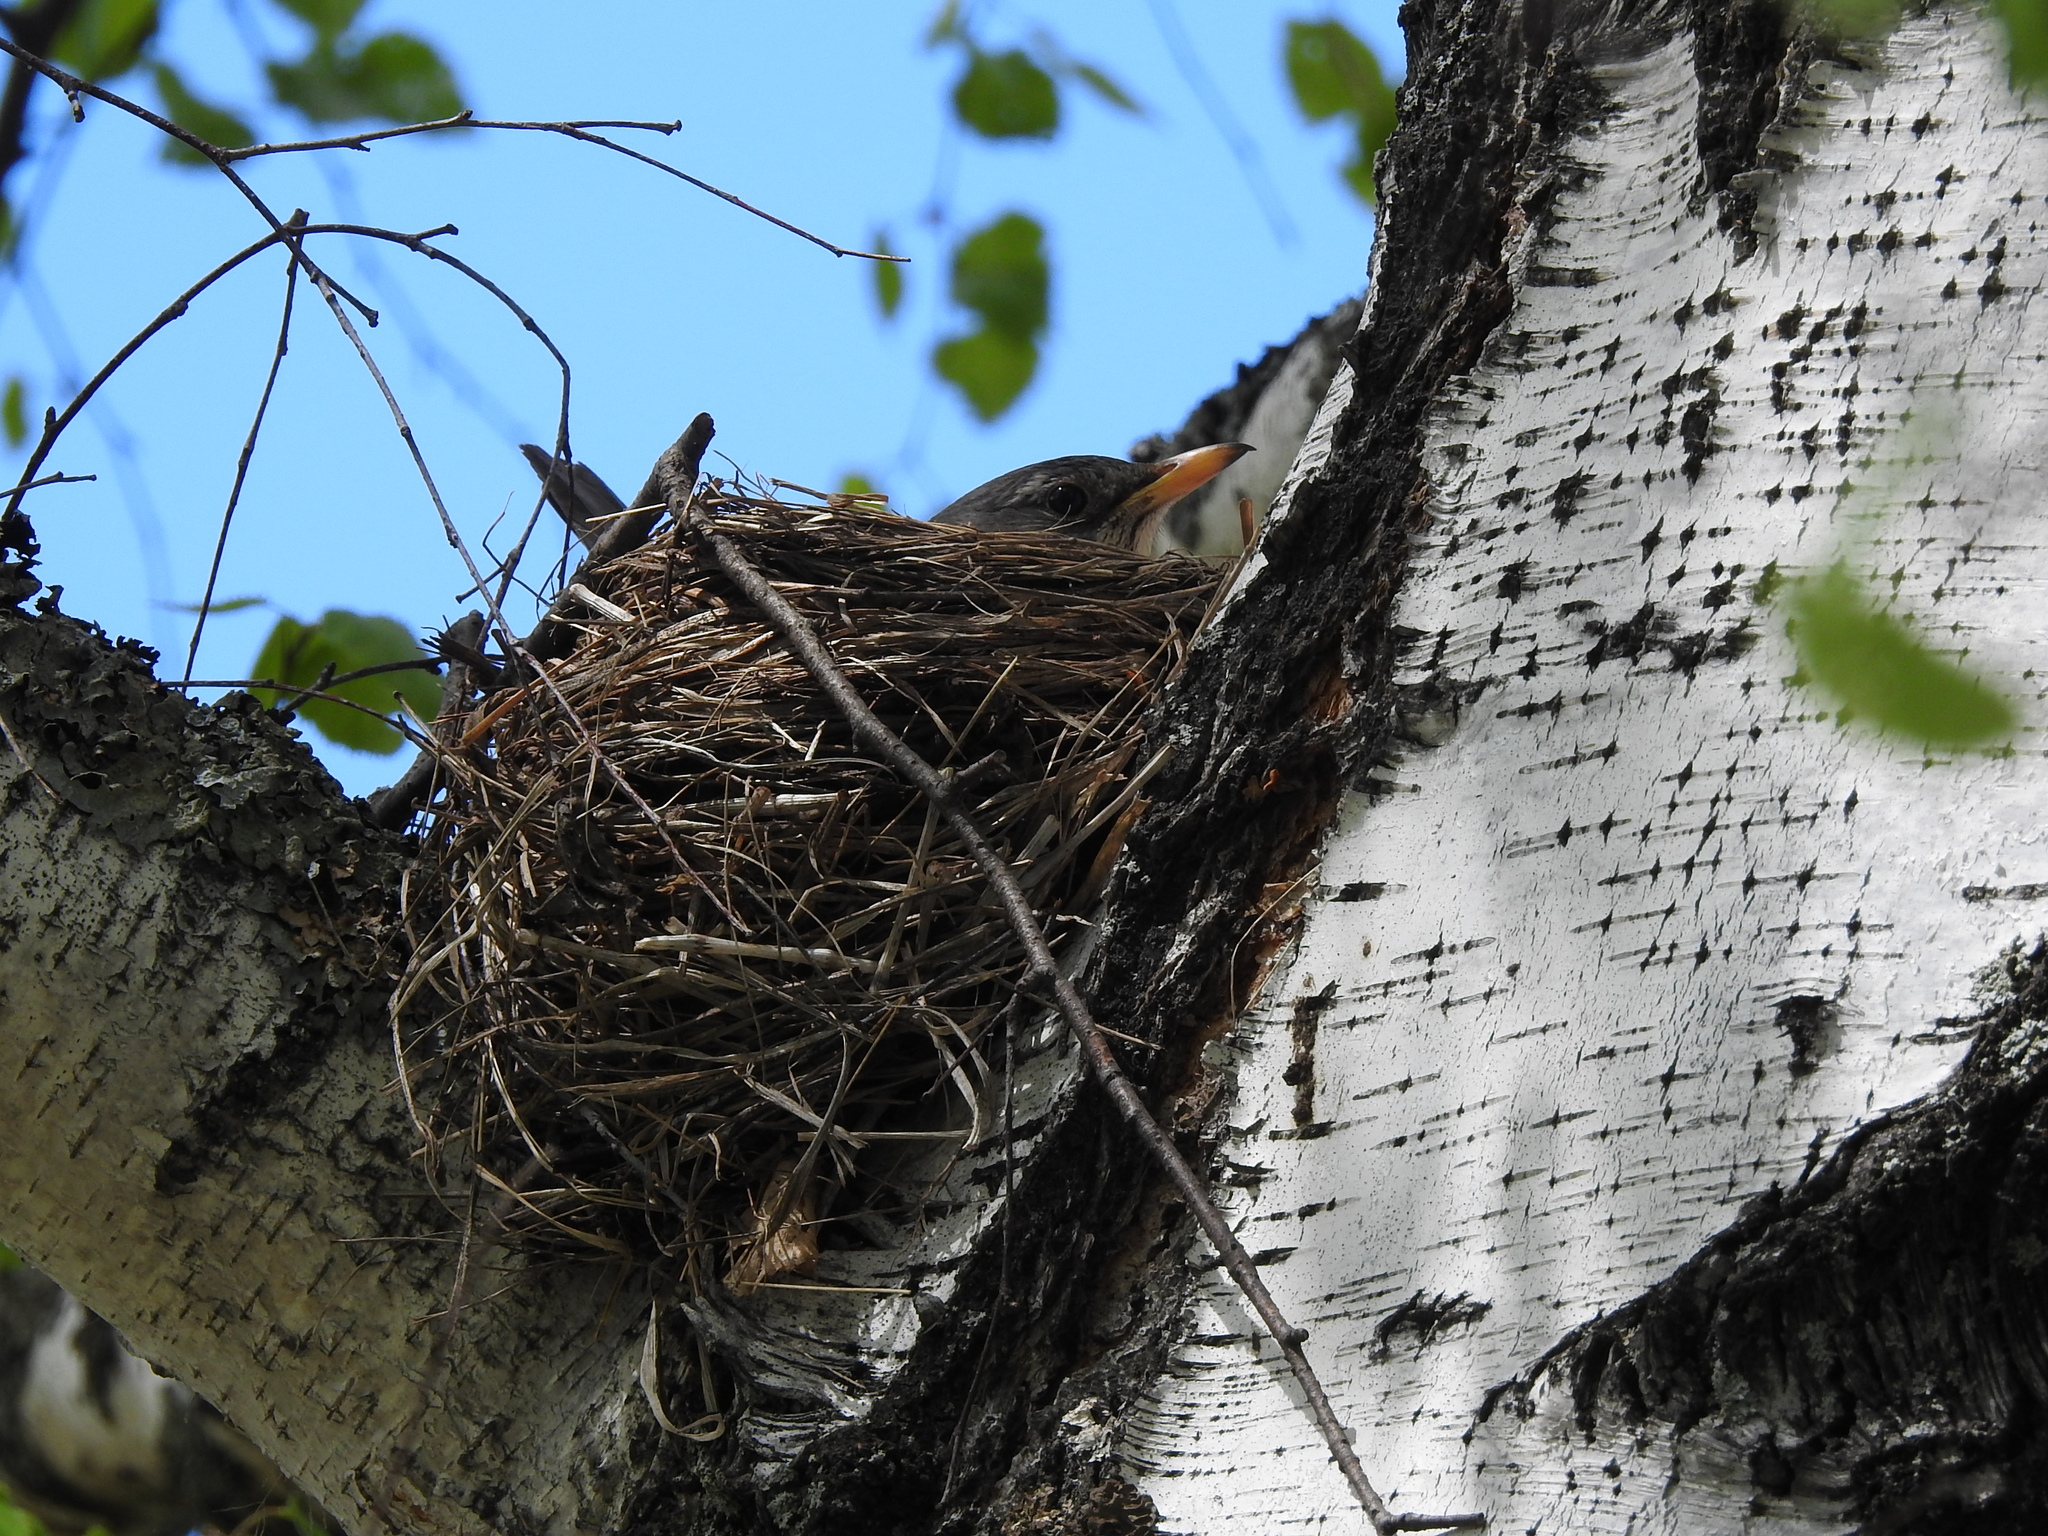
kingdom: Animalia
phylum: Chordata
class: Aves
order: Passeriformes
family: Turdidae
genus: Turdus
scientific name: Turdus pilaris
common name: Fieldfare
